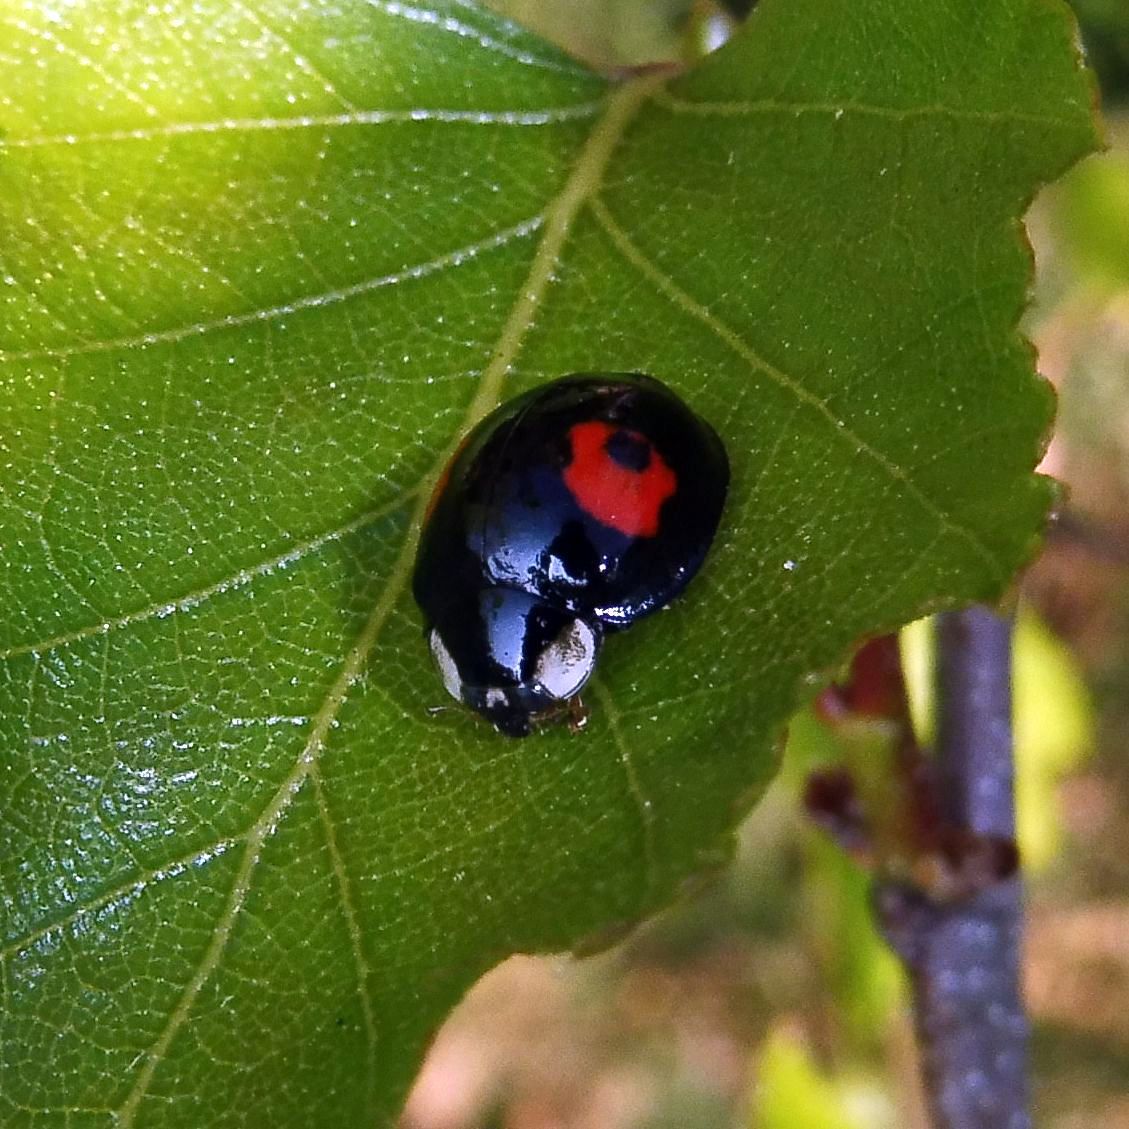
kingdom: Animalia
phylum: Arthropoda
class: Insecta
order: Coleoptera
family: Coccinellidae
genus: Harmonia
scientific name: Harmonia axyridis
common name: Harlequin ladybird
